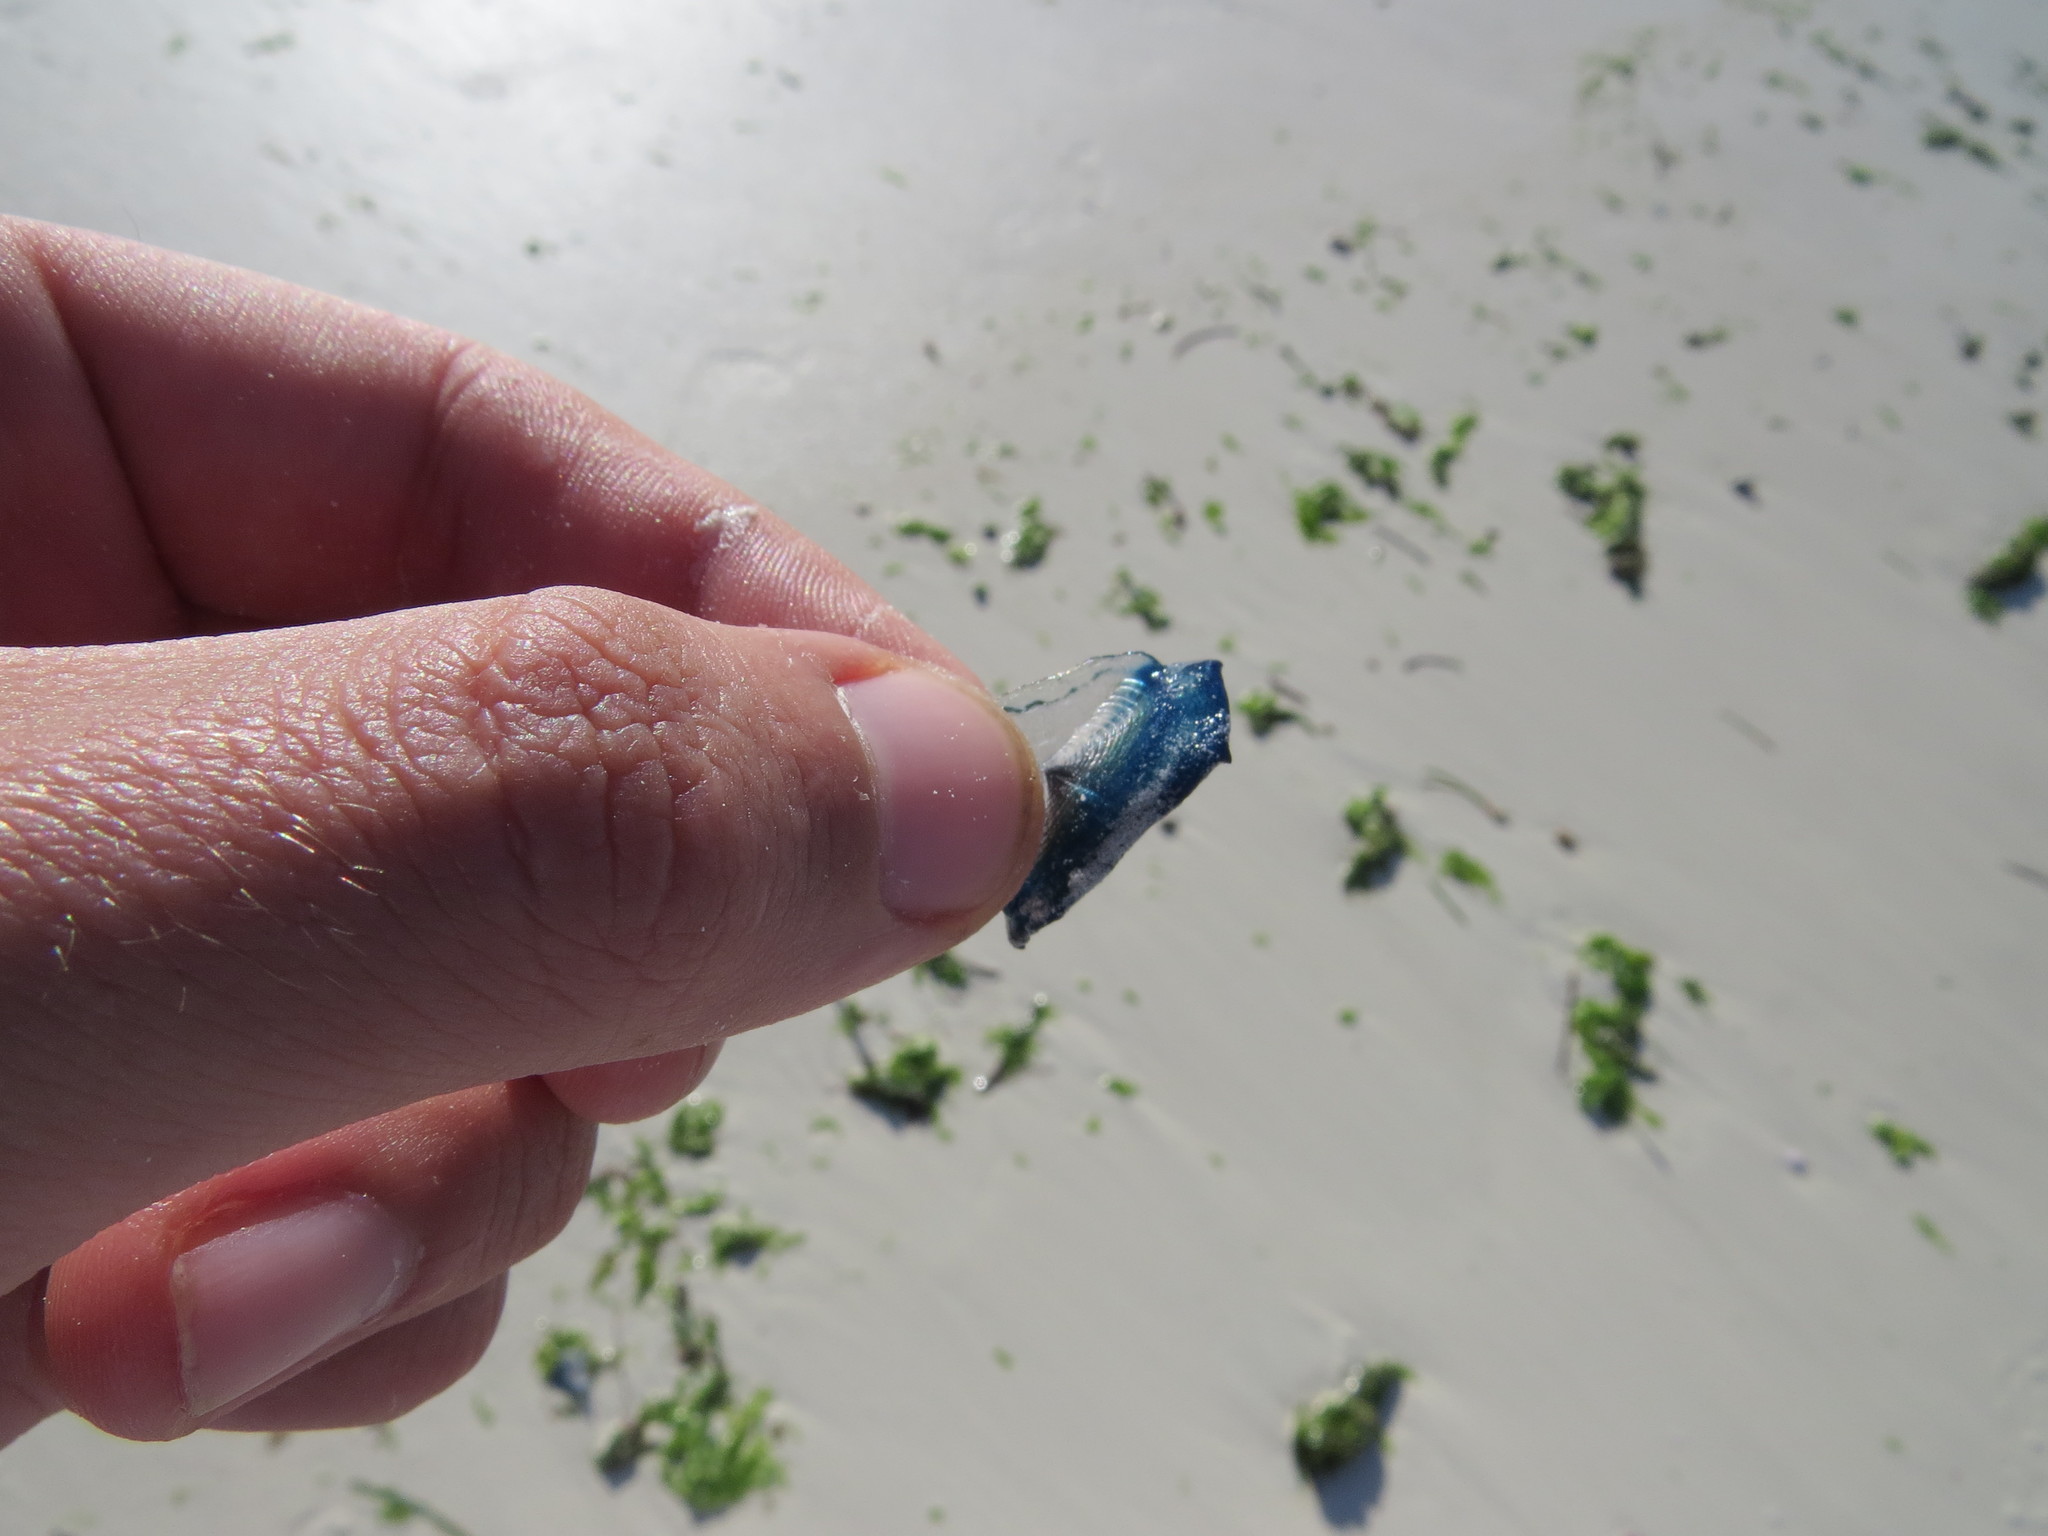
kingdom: Animalia
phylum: Cnidaria
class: Hydrozoa
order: Anthoathecata
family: Porpitidae
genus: Velella
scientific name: Velella velella
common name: By-the-wind-sailor
